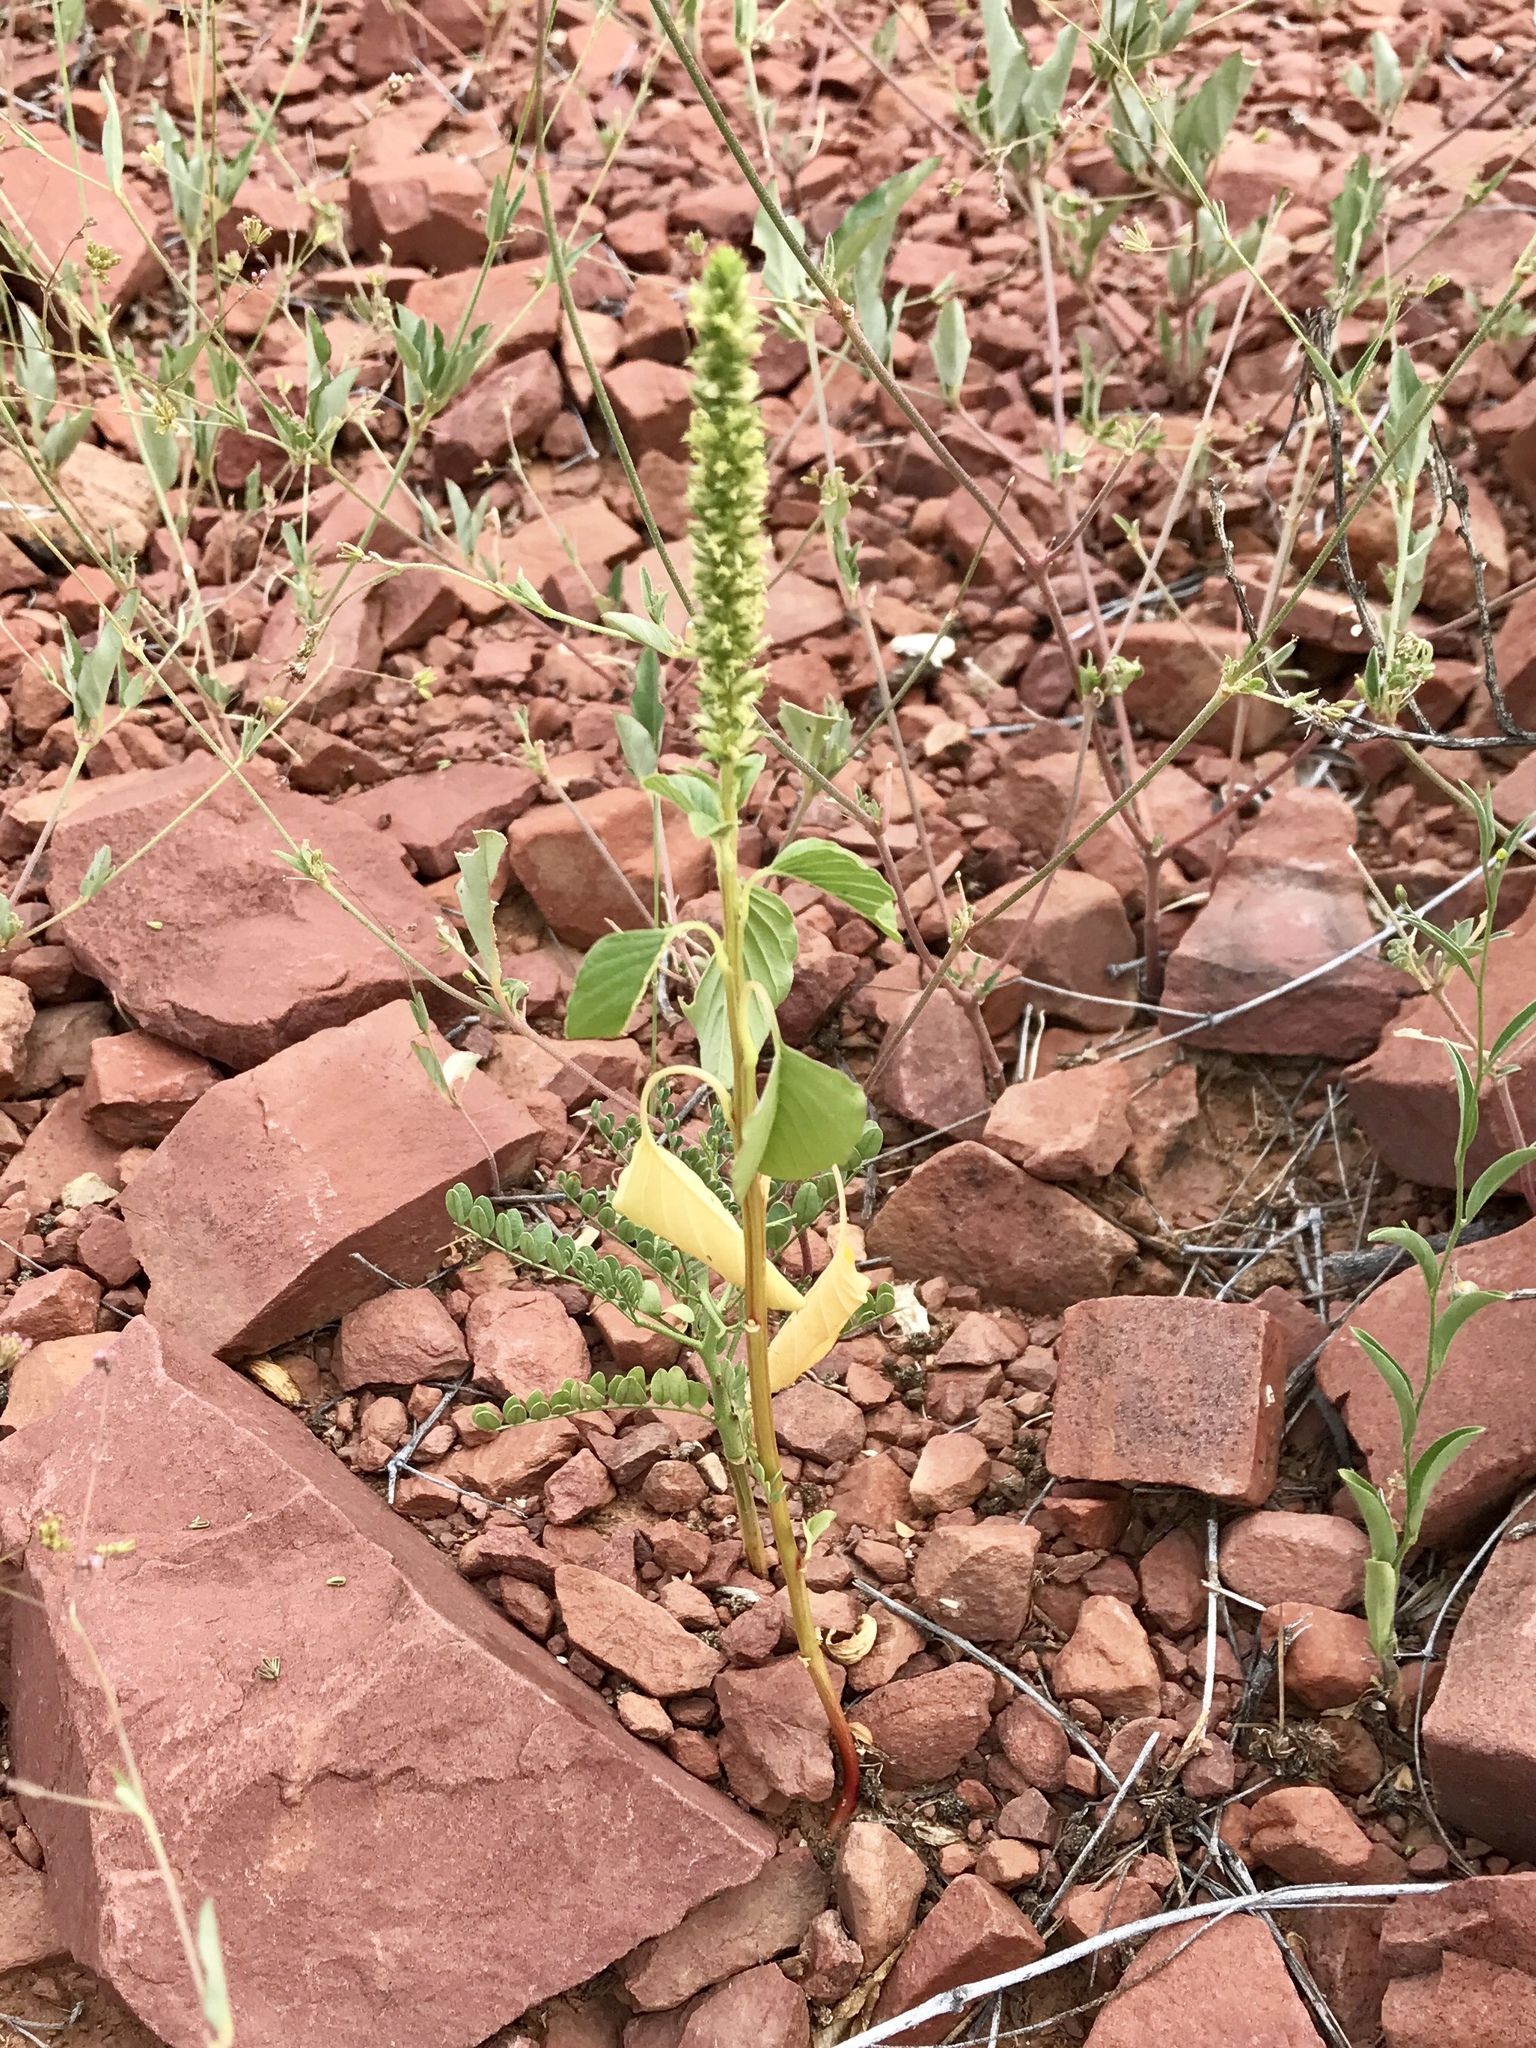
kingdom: Plantae
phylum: Tracheophyta
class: Magnoliopsida
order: Caryophyllales
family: Amaranthaceae
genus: Amaranthus
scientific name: Amaranthus palmeri
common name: Dioecious amaranth
